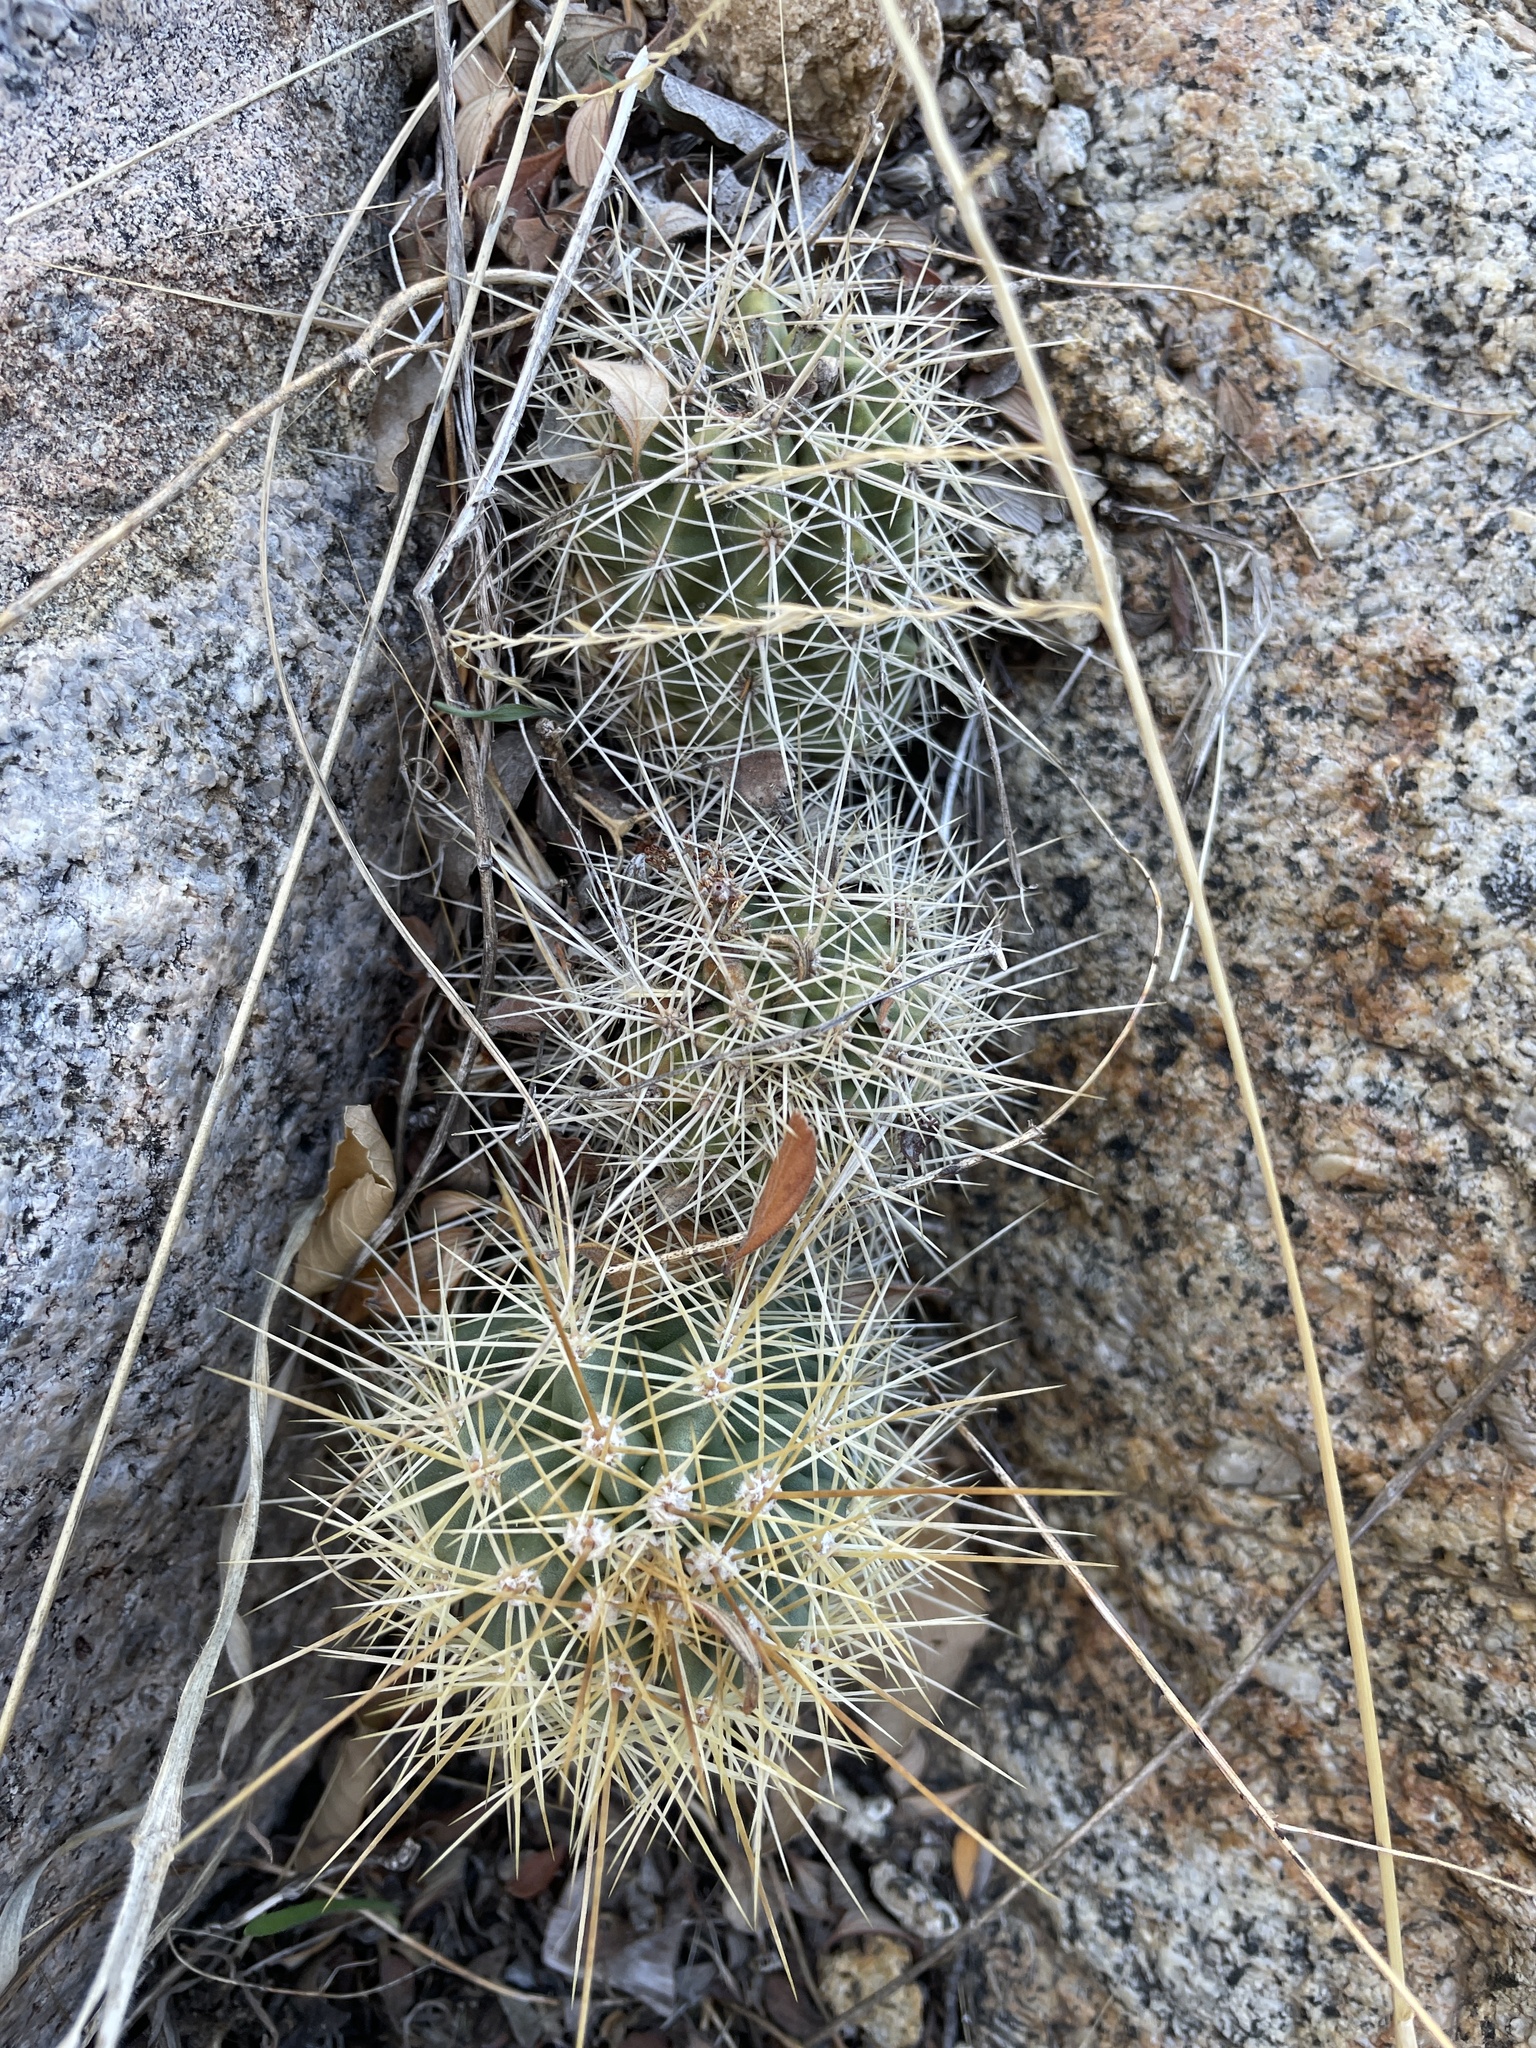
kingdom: Plantae
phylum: Tracheophyta
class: Magnoliopsida
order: Caryophyllales
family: Cactaceae
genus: Echinocereus
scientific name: Echinocereus coccineus
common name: Scarlet hedgehog cactus
